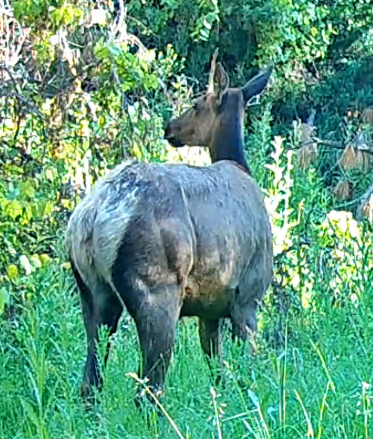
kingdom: Animalia
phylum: Chordata
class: Mammalia
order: Artiodactyla
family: Cervidae
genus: Cervus
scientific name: Cervus elaphus
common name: Red deer
